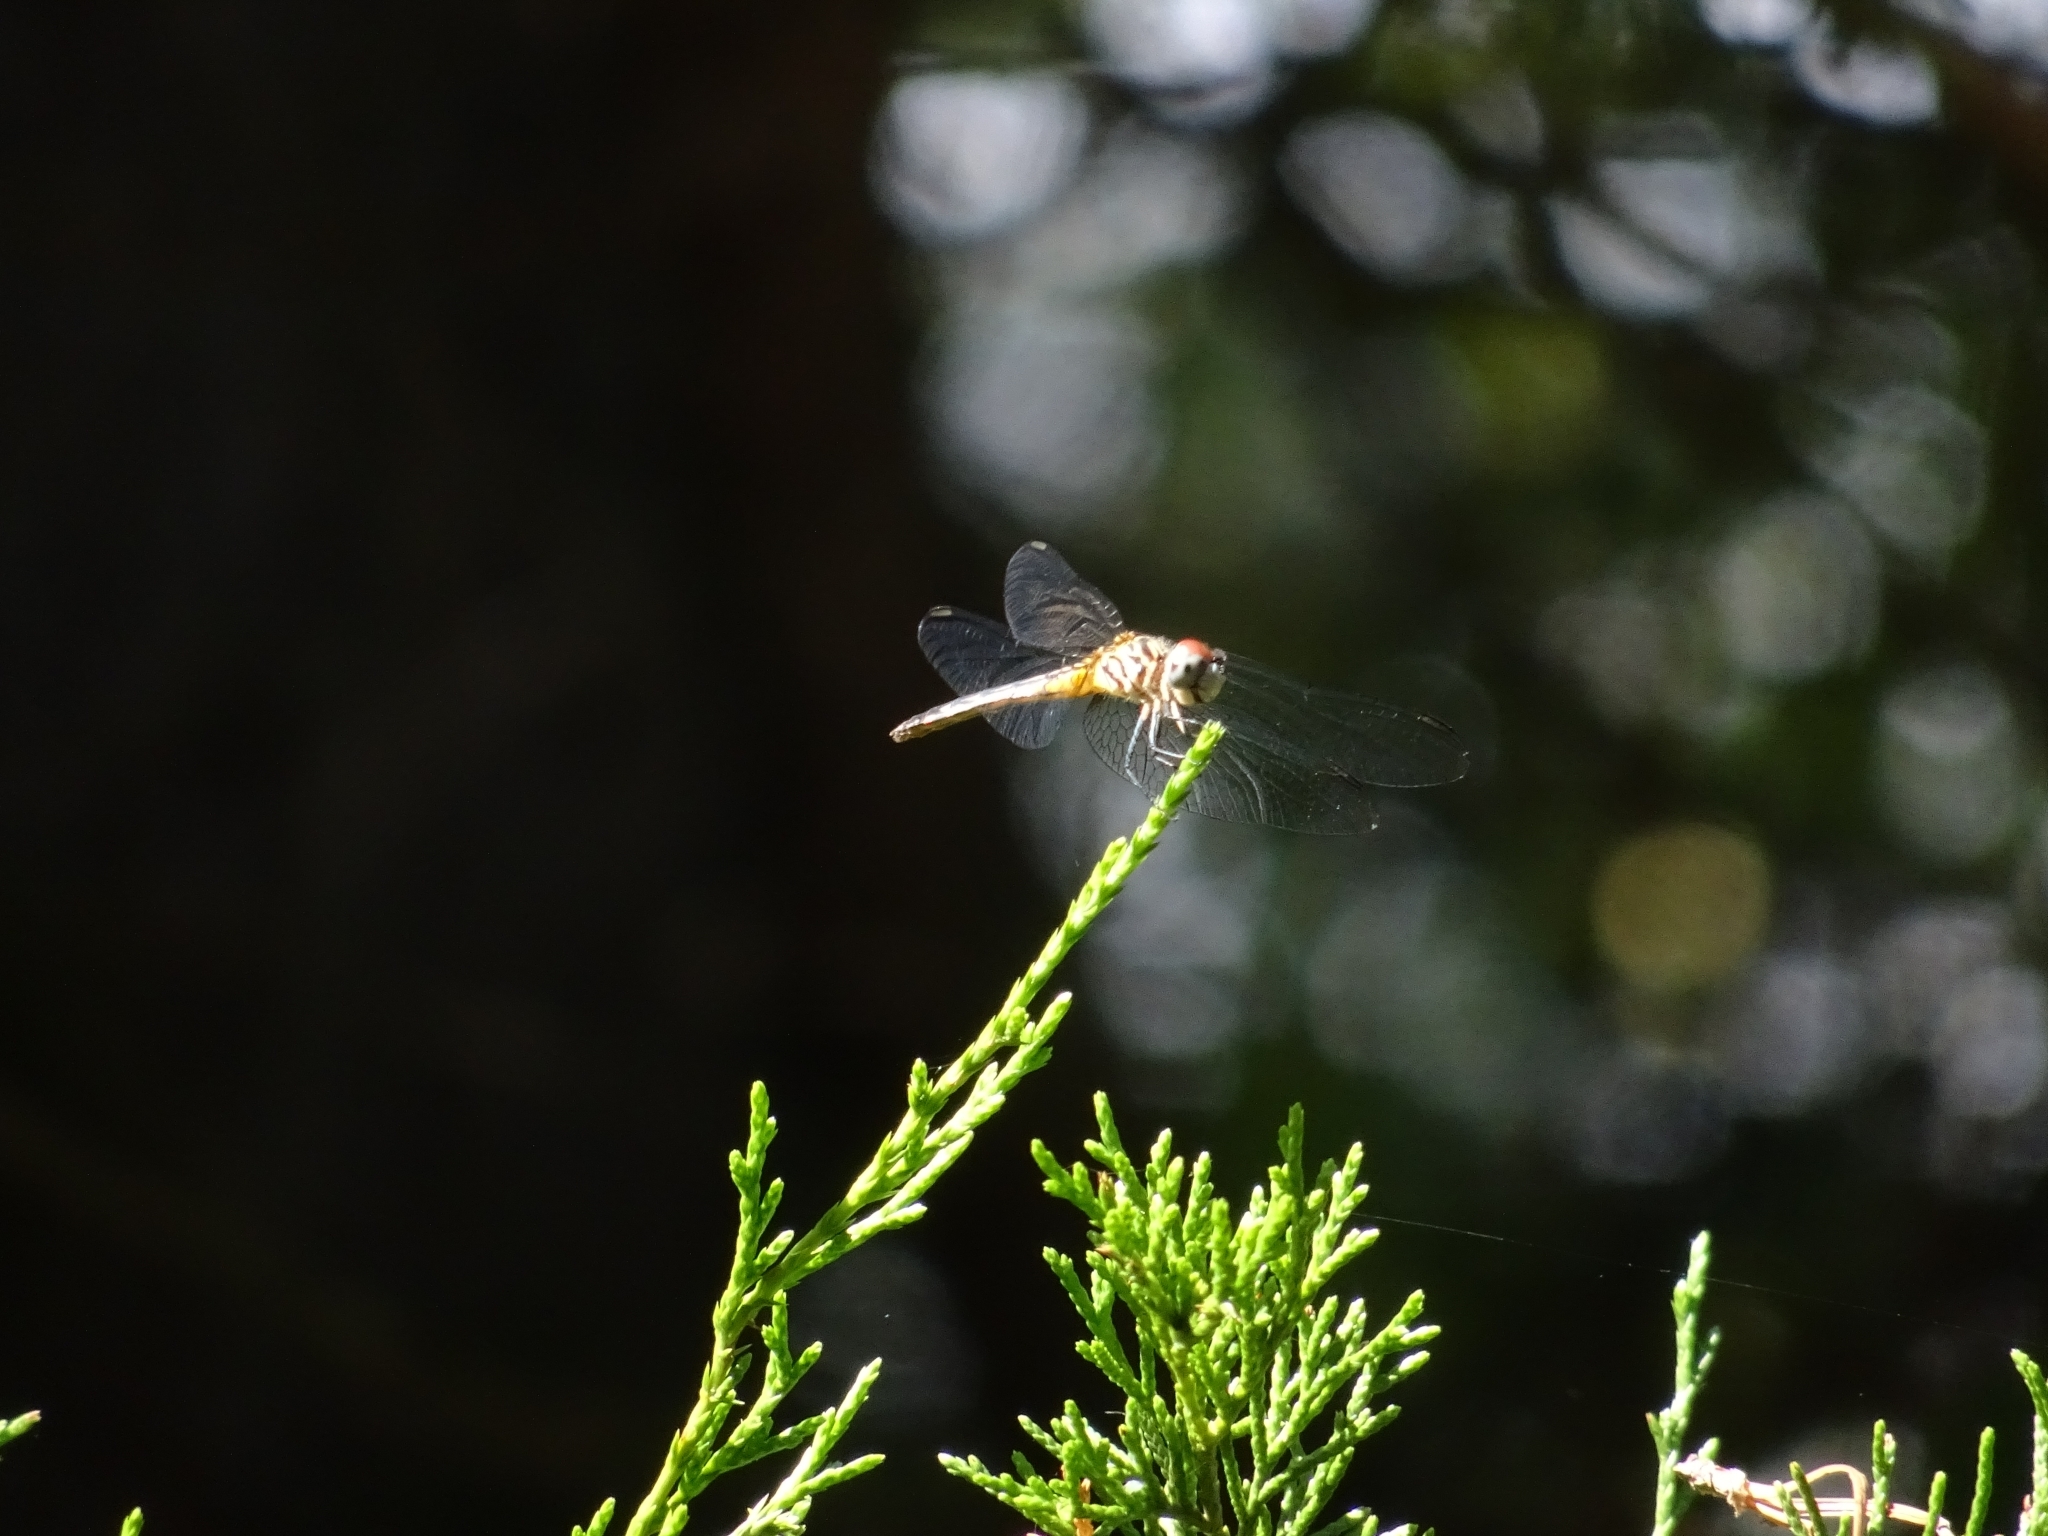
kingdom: Animalia
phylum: Arthropoda
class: Insecta
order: Odonata
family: Libellulidae
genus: Pachydiplax
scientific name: Pachydiplax longipennis
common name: Blue dasher
